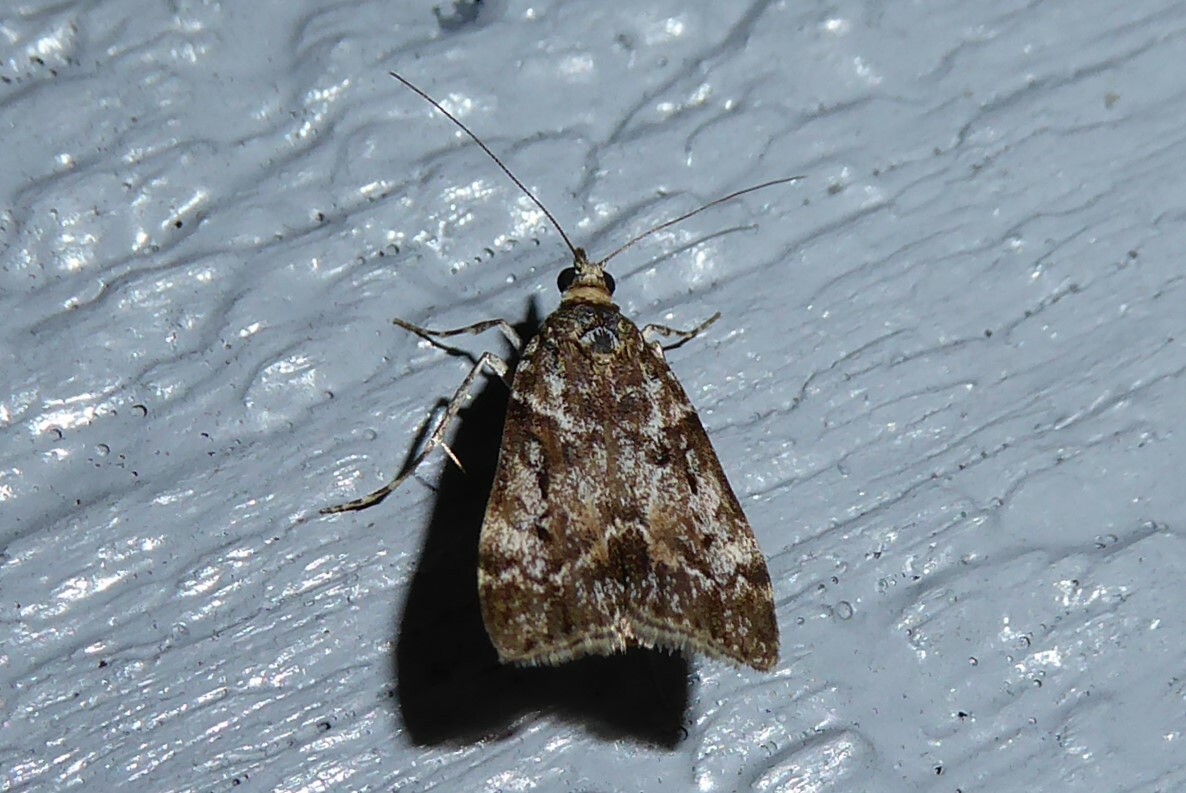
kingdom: Animalia
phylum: Arthropoda
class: Insecta
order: Lepidoptera
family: Crambidae
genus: Eudonia
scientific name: Eudonia submarginalis
